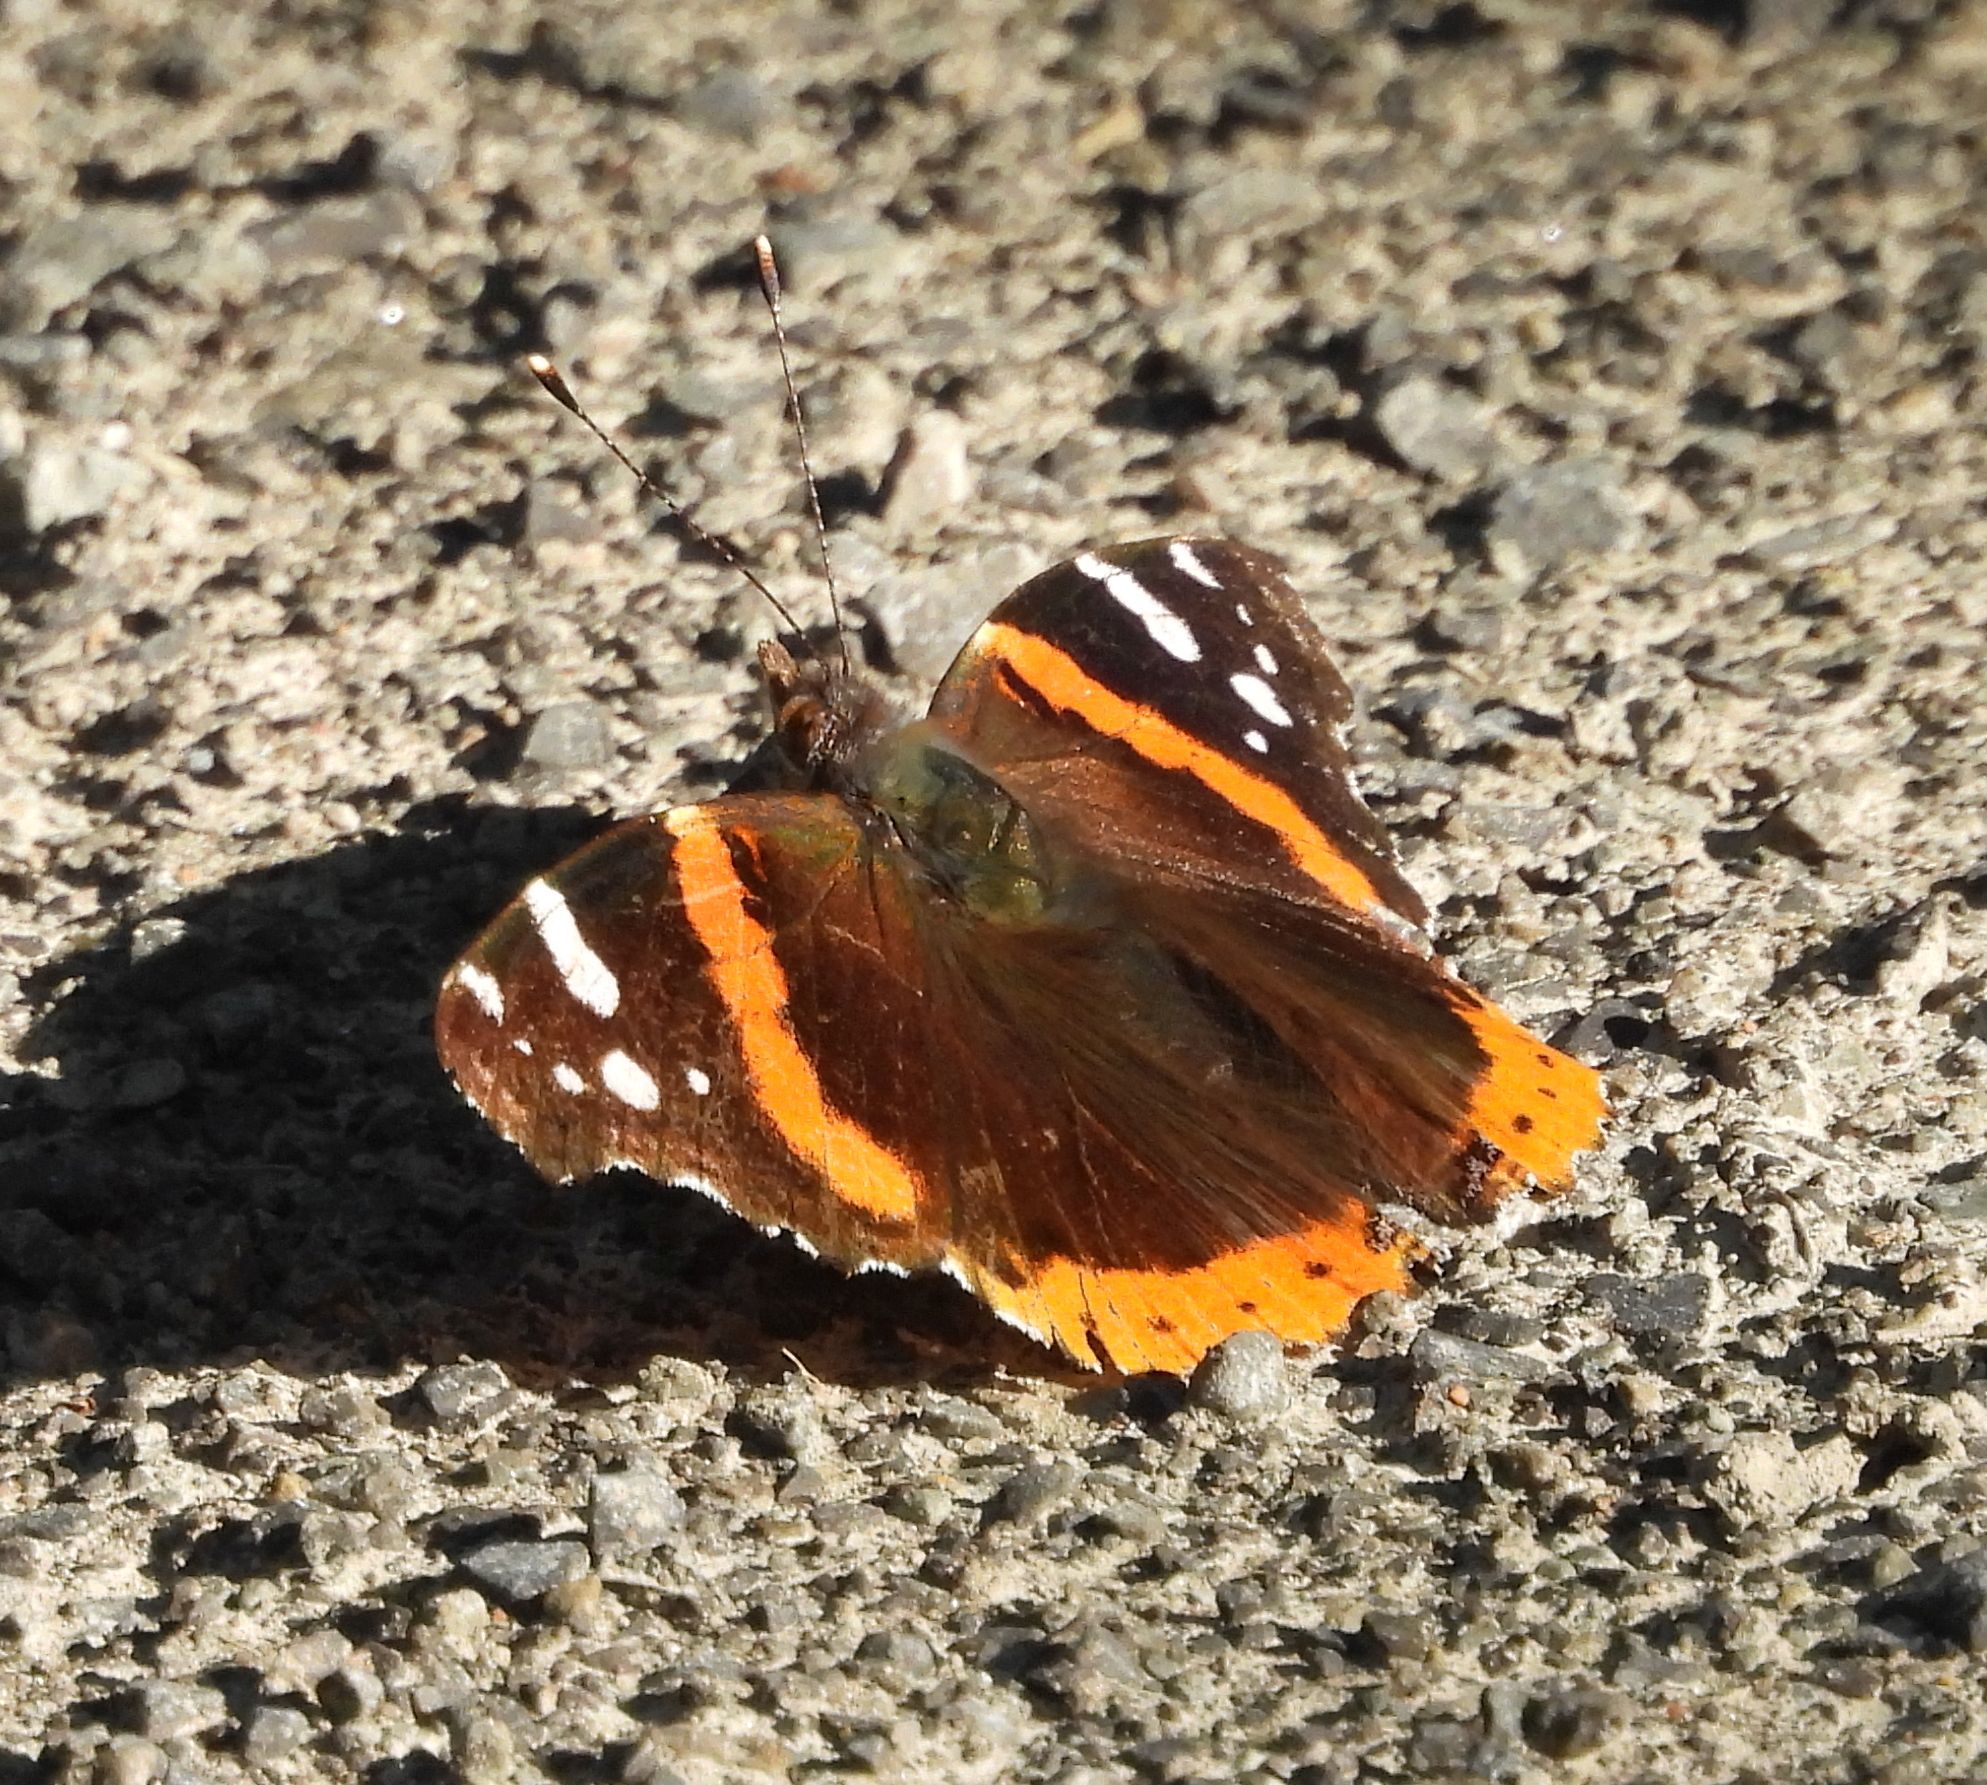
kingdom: Animalia
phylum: Arthropoda
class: Insecta
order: Lepidoptera
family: Nymphalidae
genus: Vanessa
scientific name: Vanessa atalanta
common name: Red admiral
